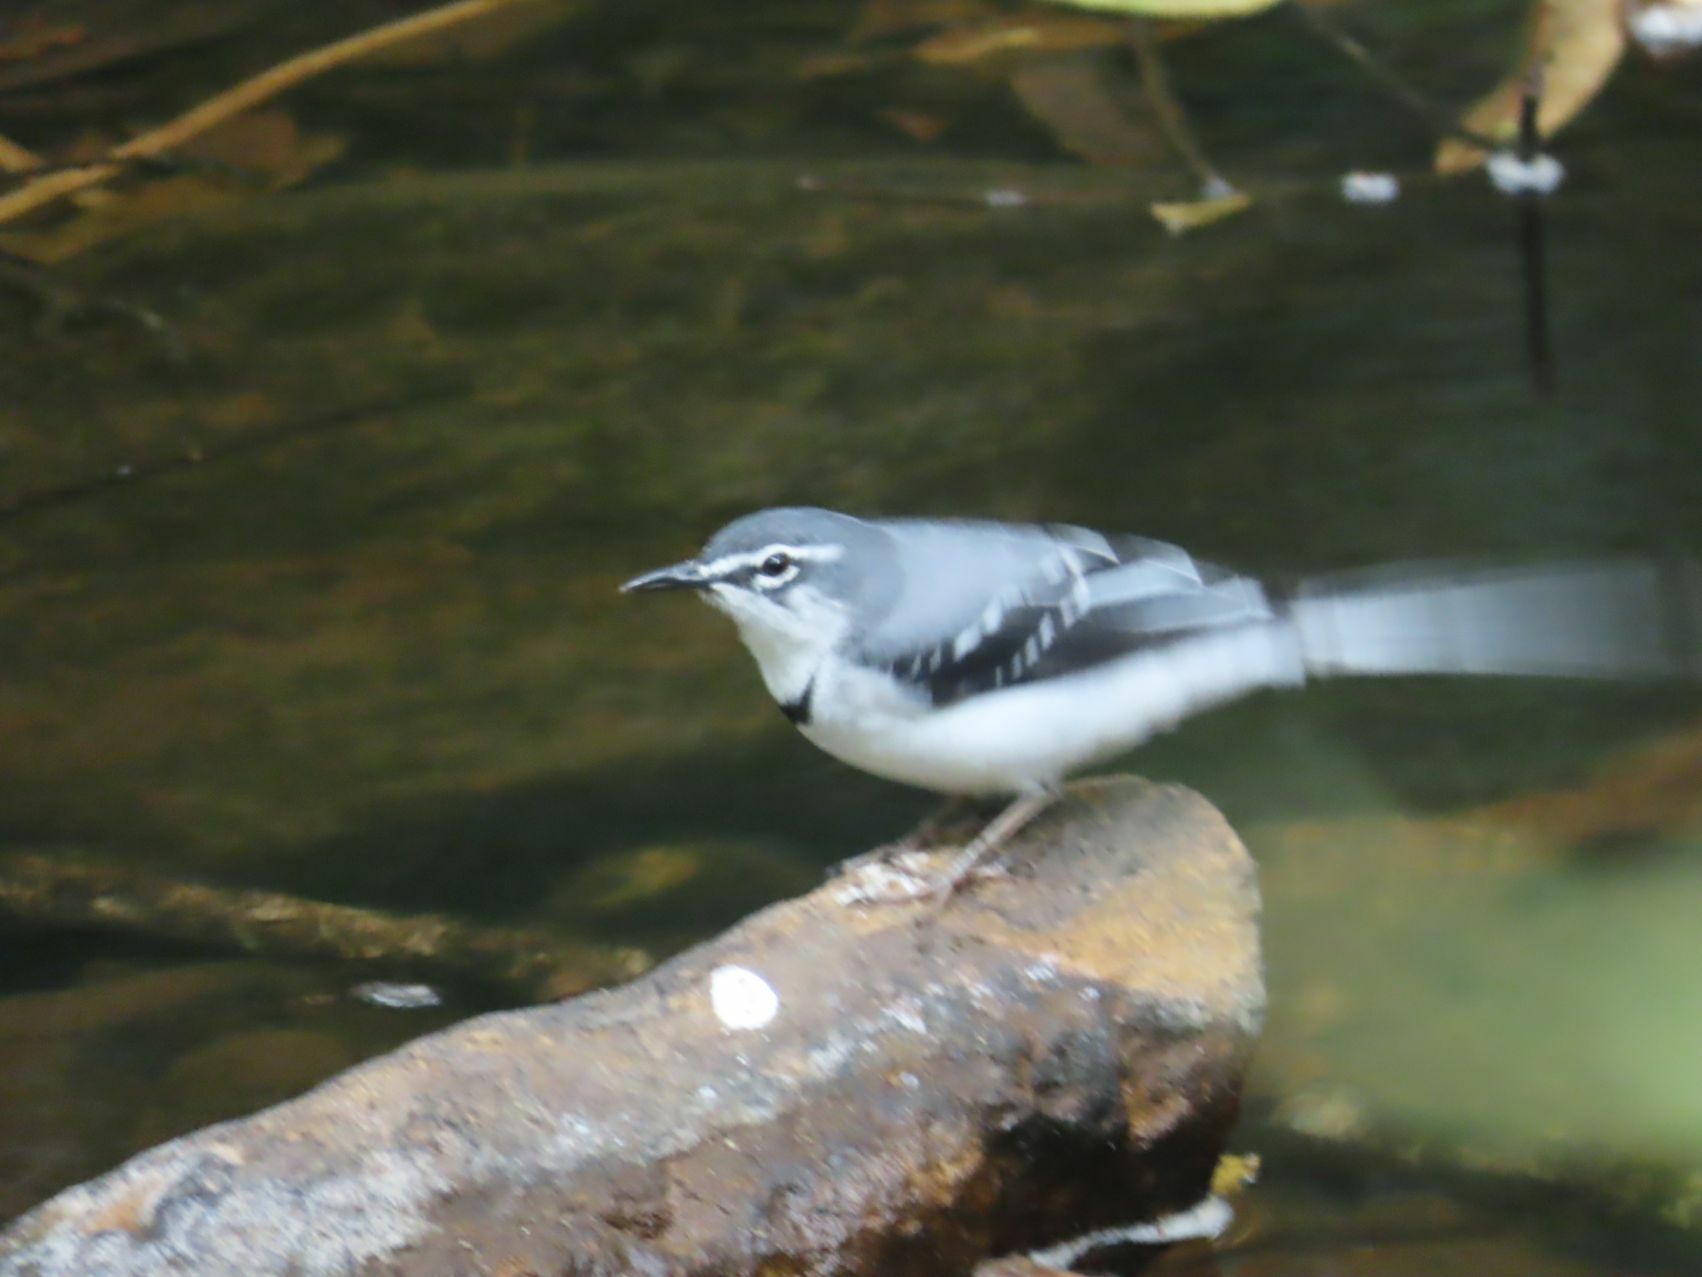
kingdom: Animalia
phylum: Chordata
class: Aves
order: Passeriformes
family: Motacillidae
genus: Motacilla
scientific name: Motacilla clara
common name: Mountain wagtail
